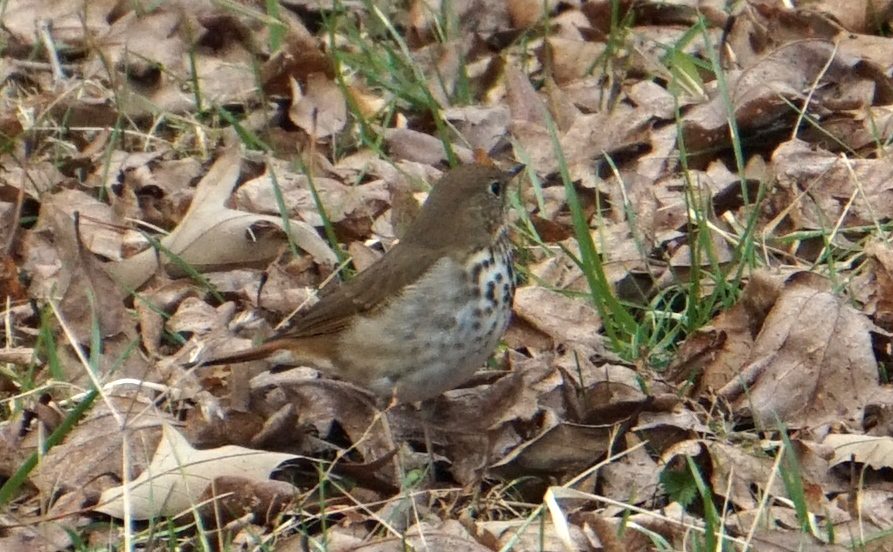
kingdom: Animalia
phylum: Chordata
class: Aves
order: Passeriformes
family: Turdidae
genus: Catharus
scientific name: Catharus guttatus
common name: Hermit thrush
